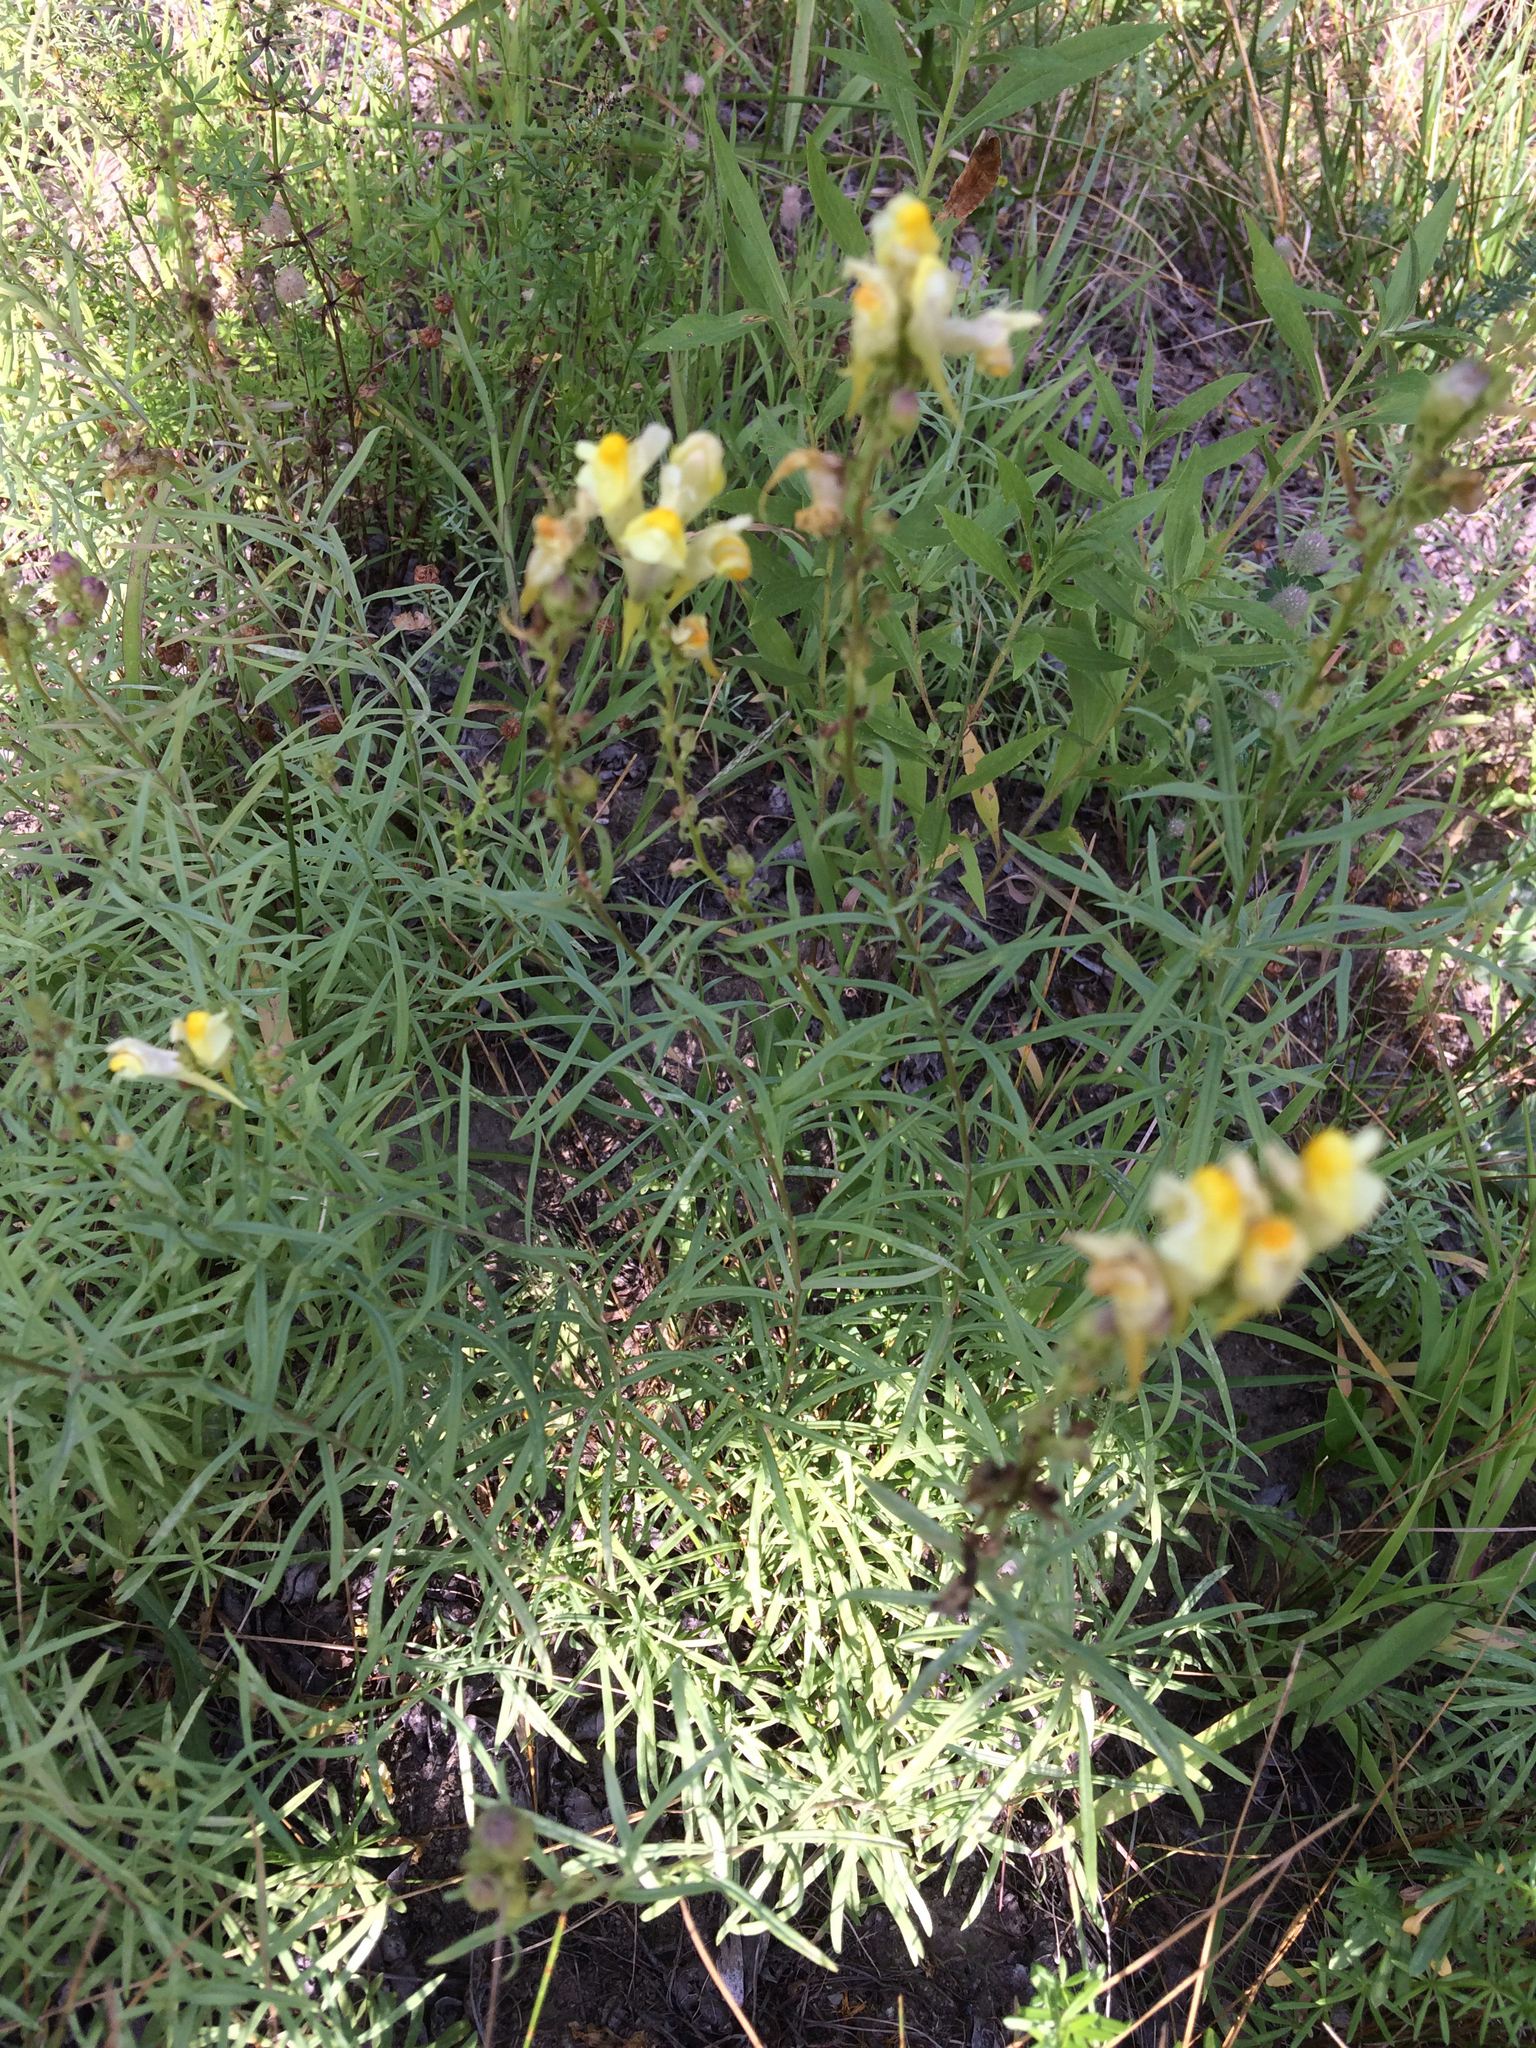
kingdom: Plantae
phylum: Tracheophyta
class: Magnoliopsida
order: Lamiales
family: Plantaginaceae
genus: Linaria
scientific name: Linaria vulgaris
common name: Butter and eggs
